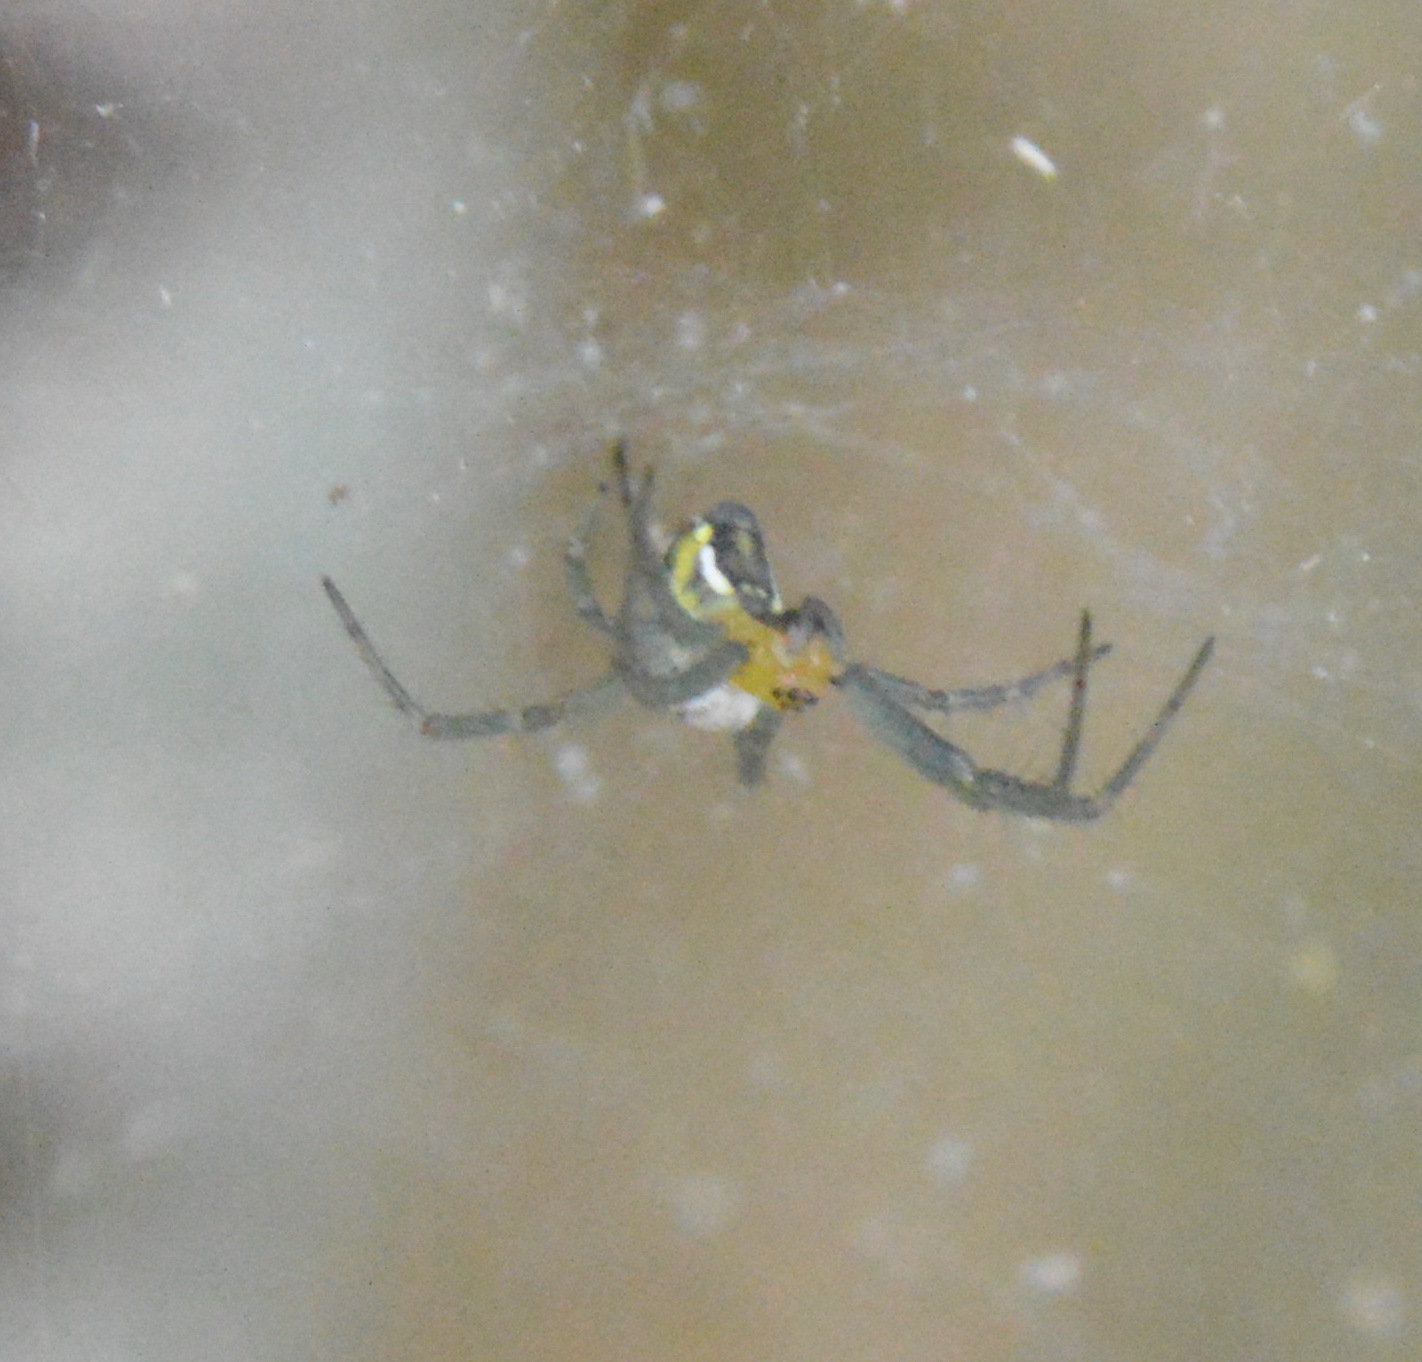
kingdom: Animalia
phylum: Arthropoda
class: Arachnida
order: Araneae
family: Araneidae
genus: Mecynogea
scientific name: Mecynogea lemniscata
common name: Orb weavers
